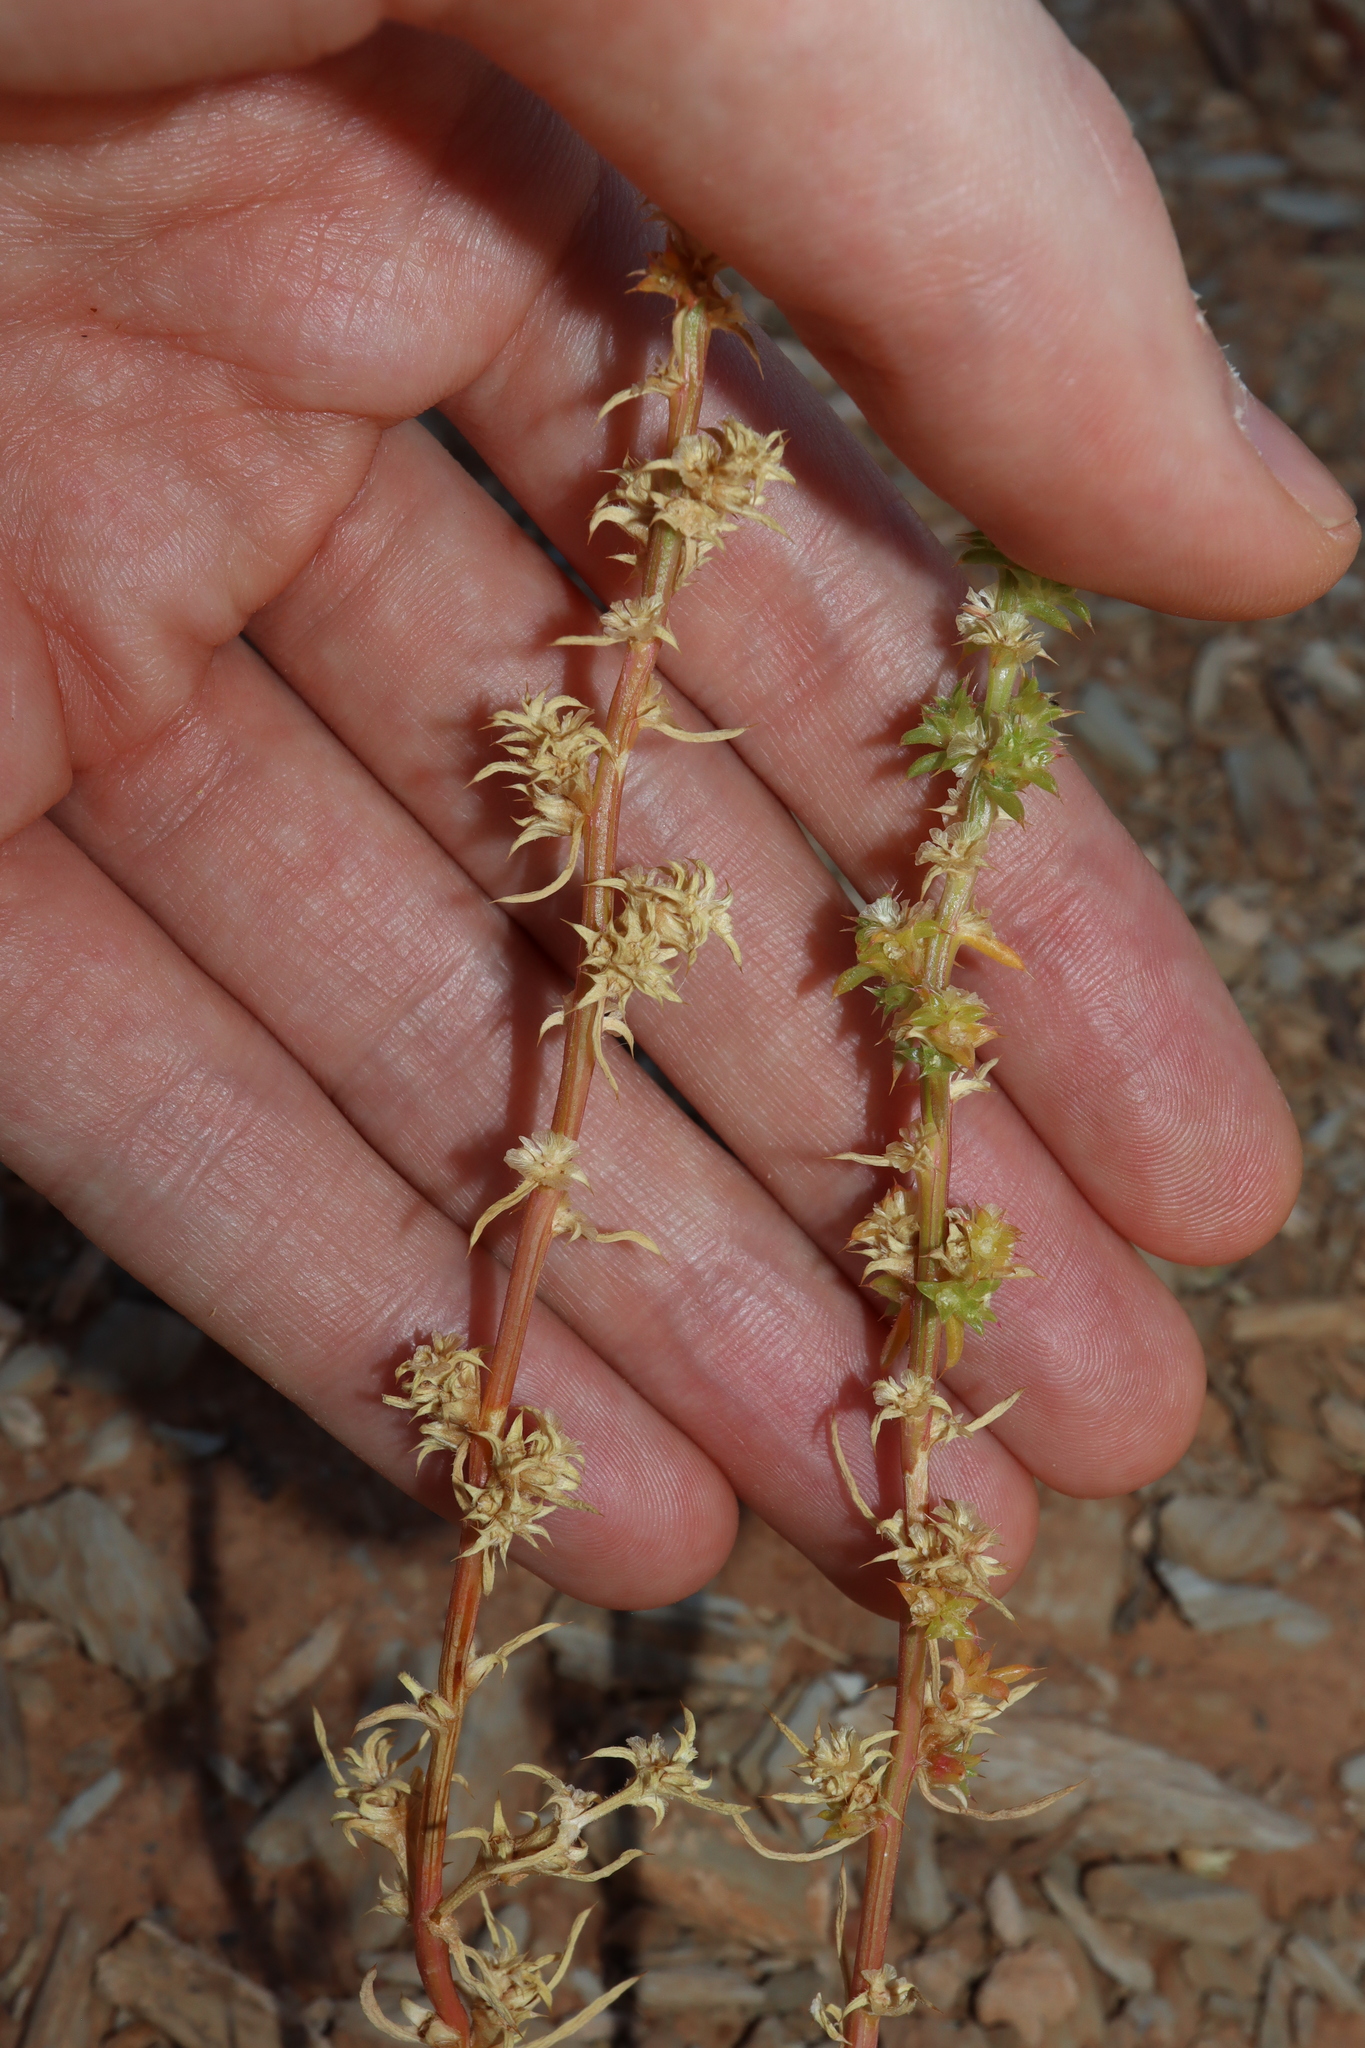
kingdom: Plantae
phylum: Tracheophyta
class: Magnoliopsida
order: Caryophyllales
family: Amaranthaceae
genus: Salsola
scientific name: Salsola australis
